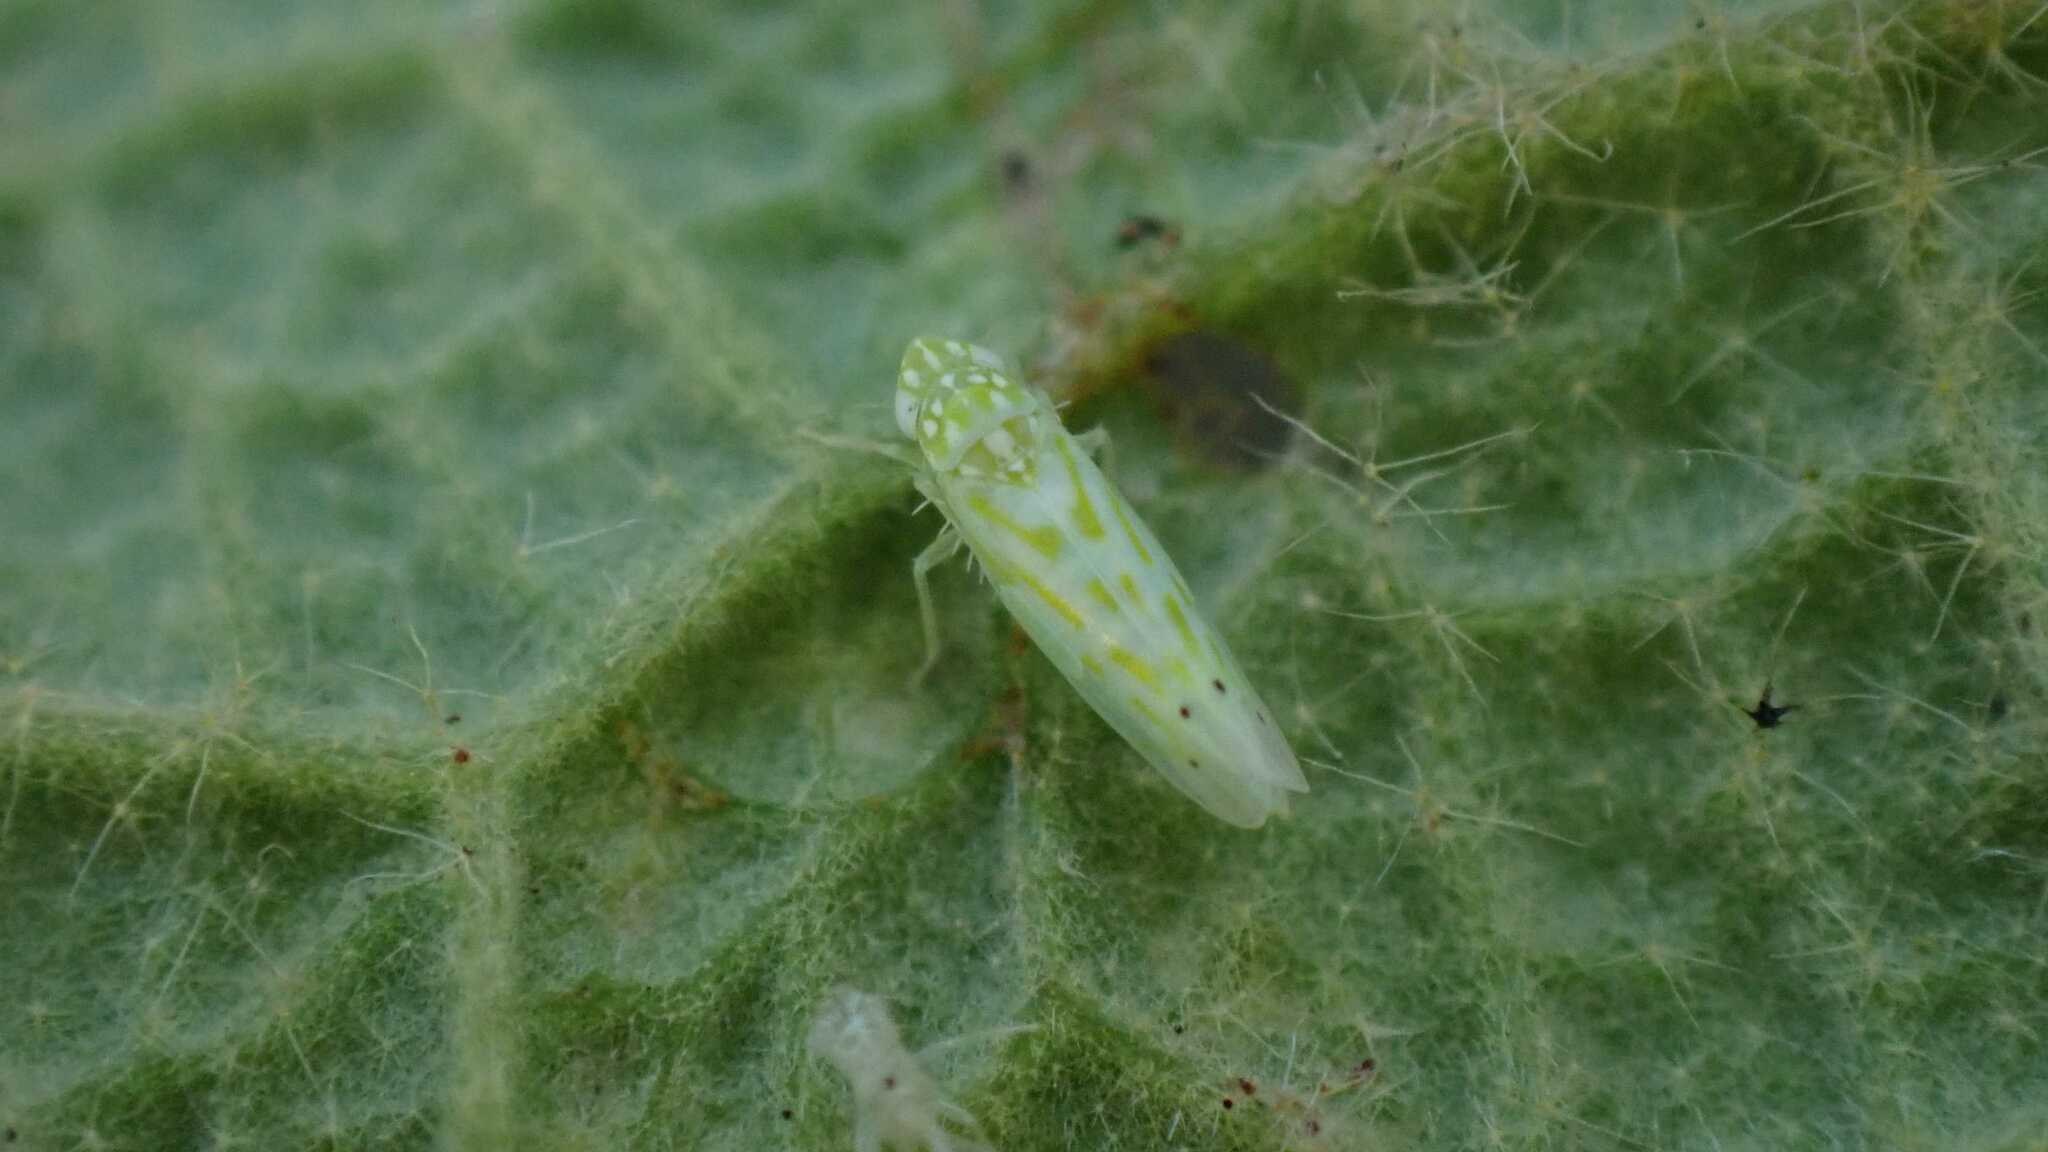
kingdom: Animalia
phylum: Arthropoda
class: Insecta
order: Hemiptera
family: Cicadellidae
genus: Micantulina
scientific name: Micantulina stigmatipennis
